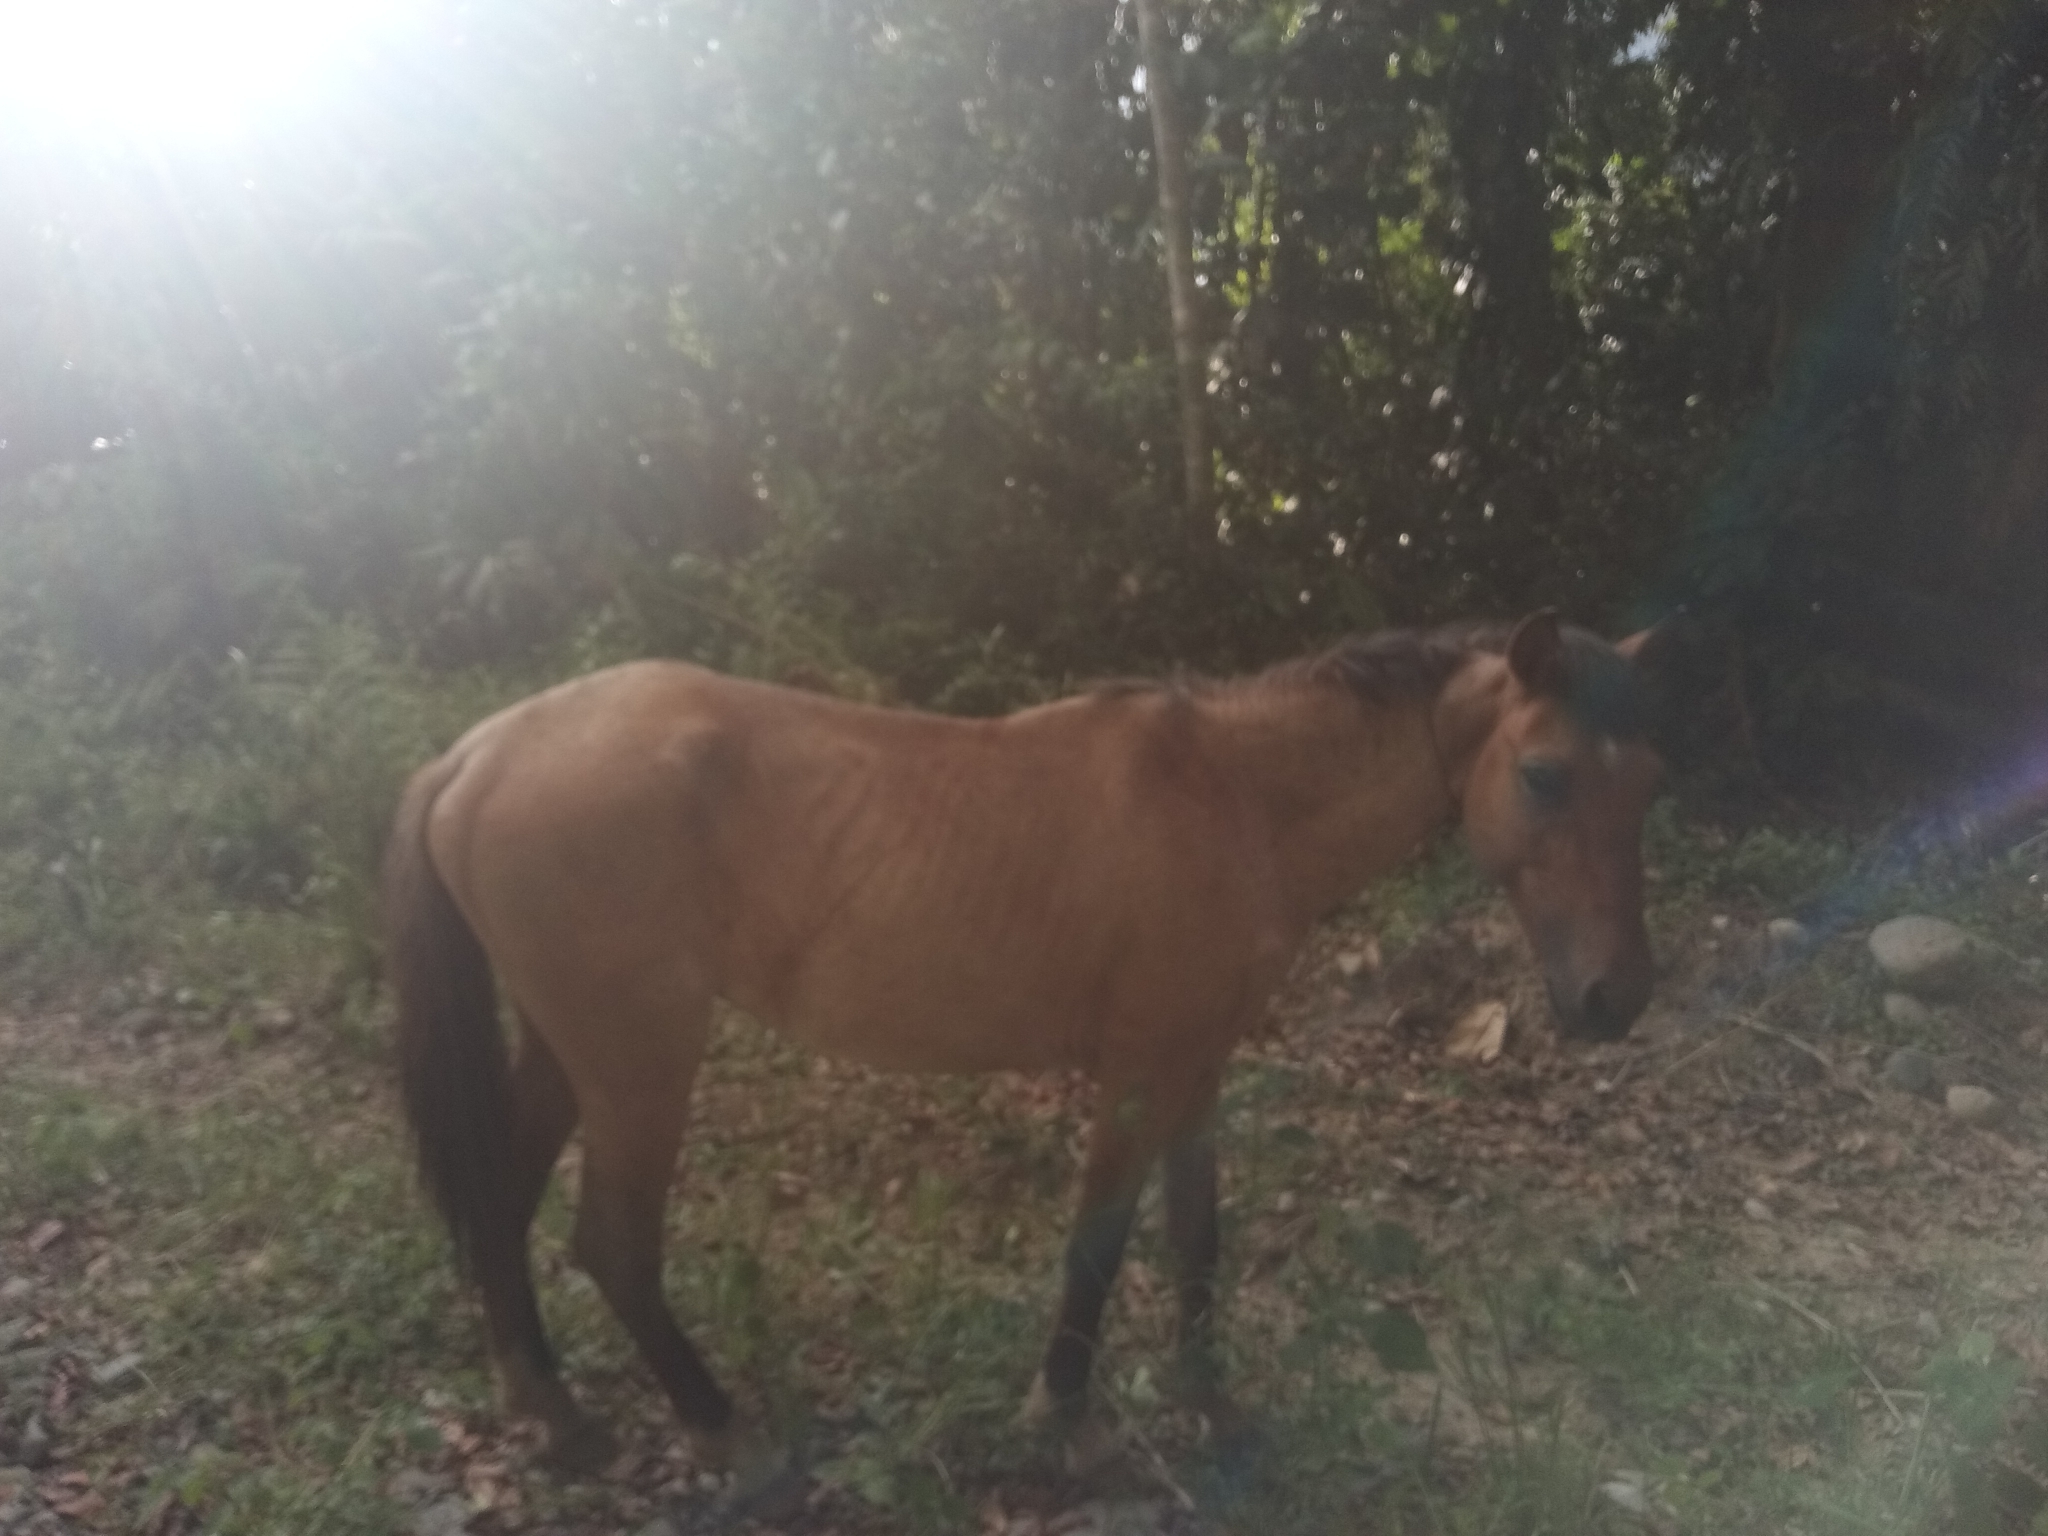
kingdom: Animalia
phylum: Chordata
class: Mammalia
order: Perissodactyla
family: Equidae
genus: Equus
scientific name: Equus caballus
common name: Horse
